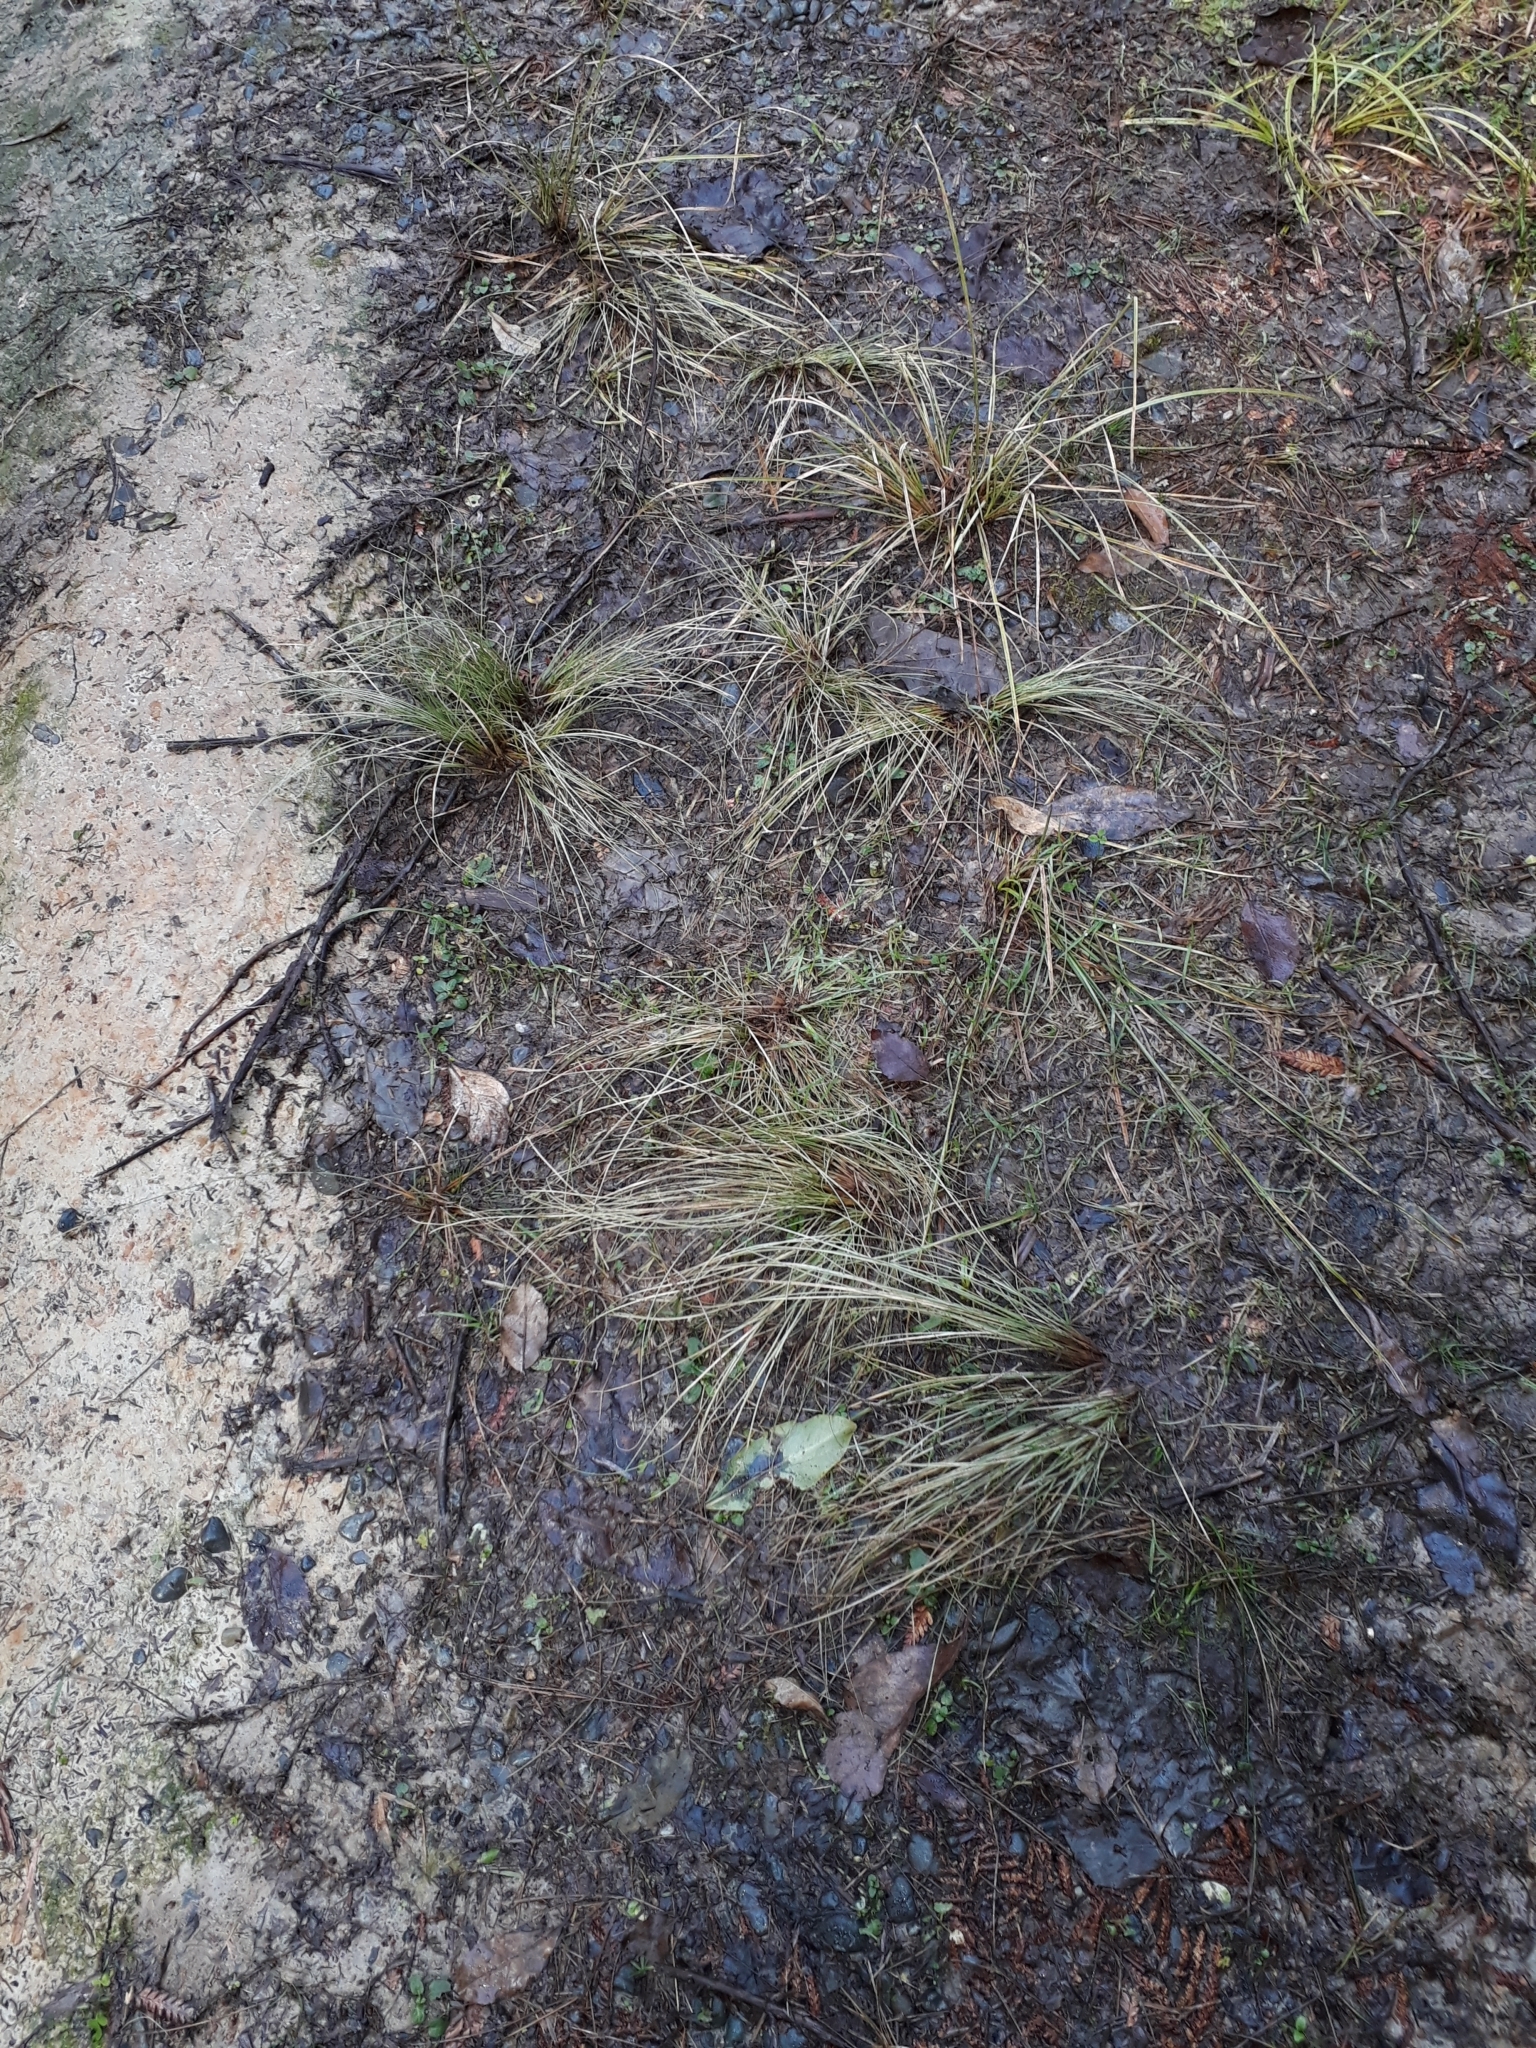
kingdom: Plantae
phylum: Tracheophyta
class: Liliopsida
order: Poales
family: Cyperaceae
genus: Carex
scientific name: Carex comans
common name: Longwood tussock
